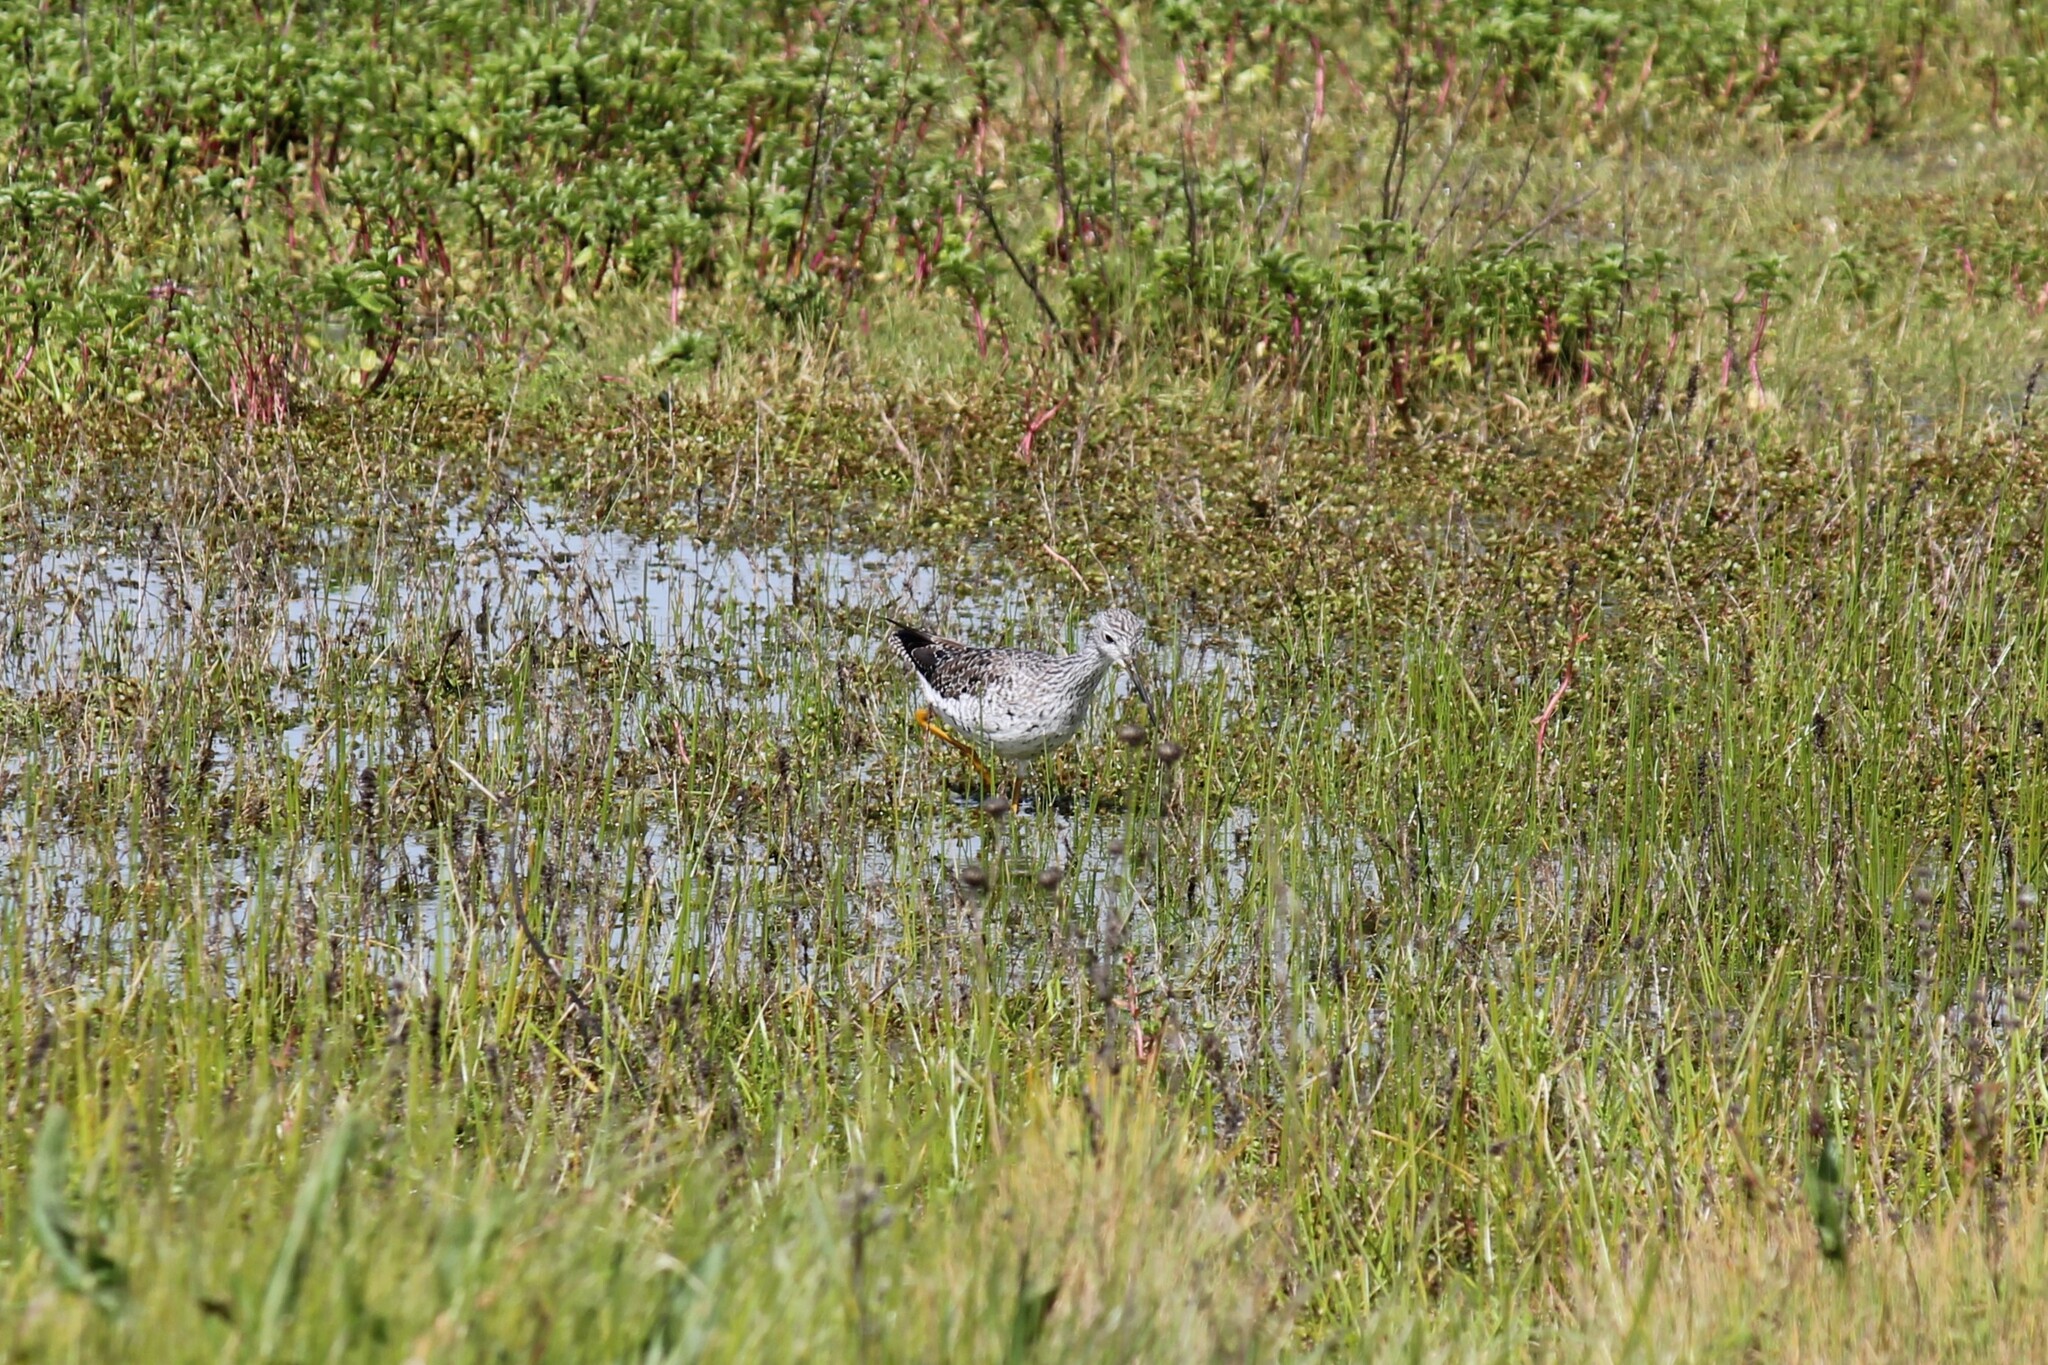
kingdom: Animalia
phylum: Chordata
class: Aves
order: Charadriiformes
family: Scolopacidae
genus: Tringa
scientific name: Tringa melanoleuca
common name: Greater yellowlegs
